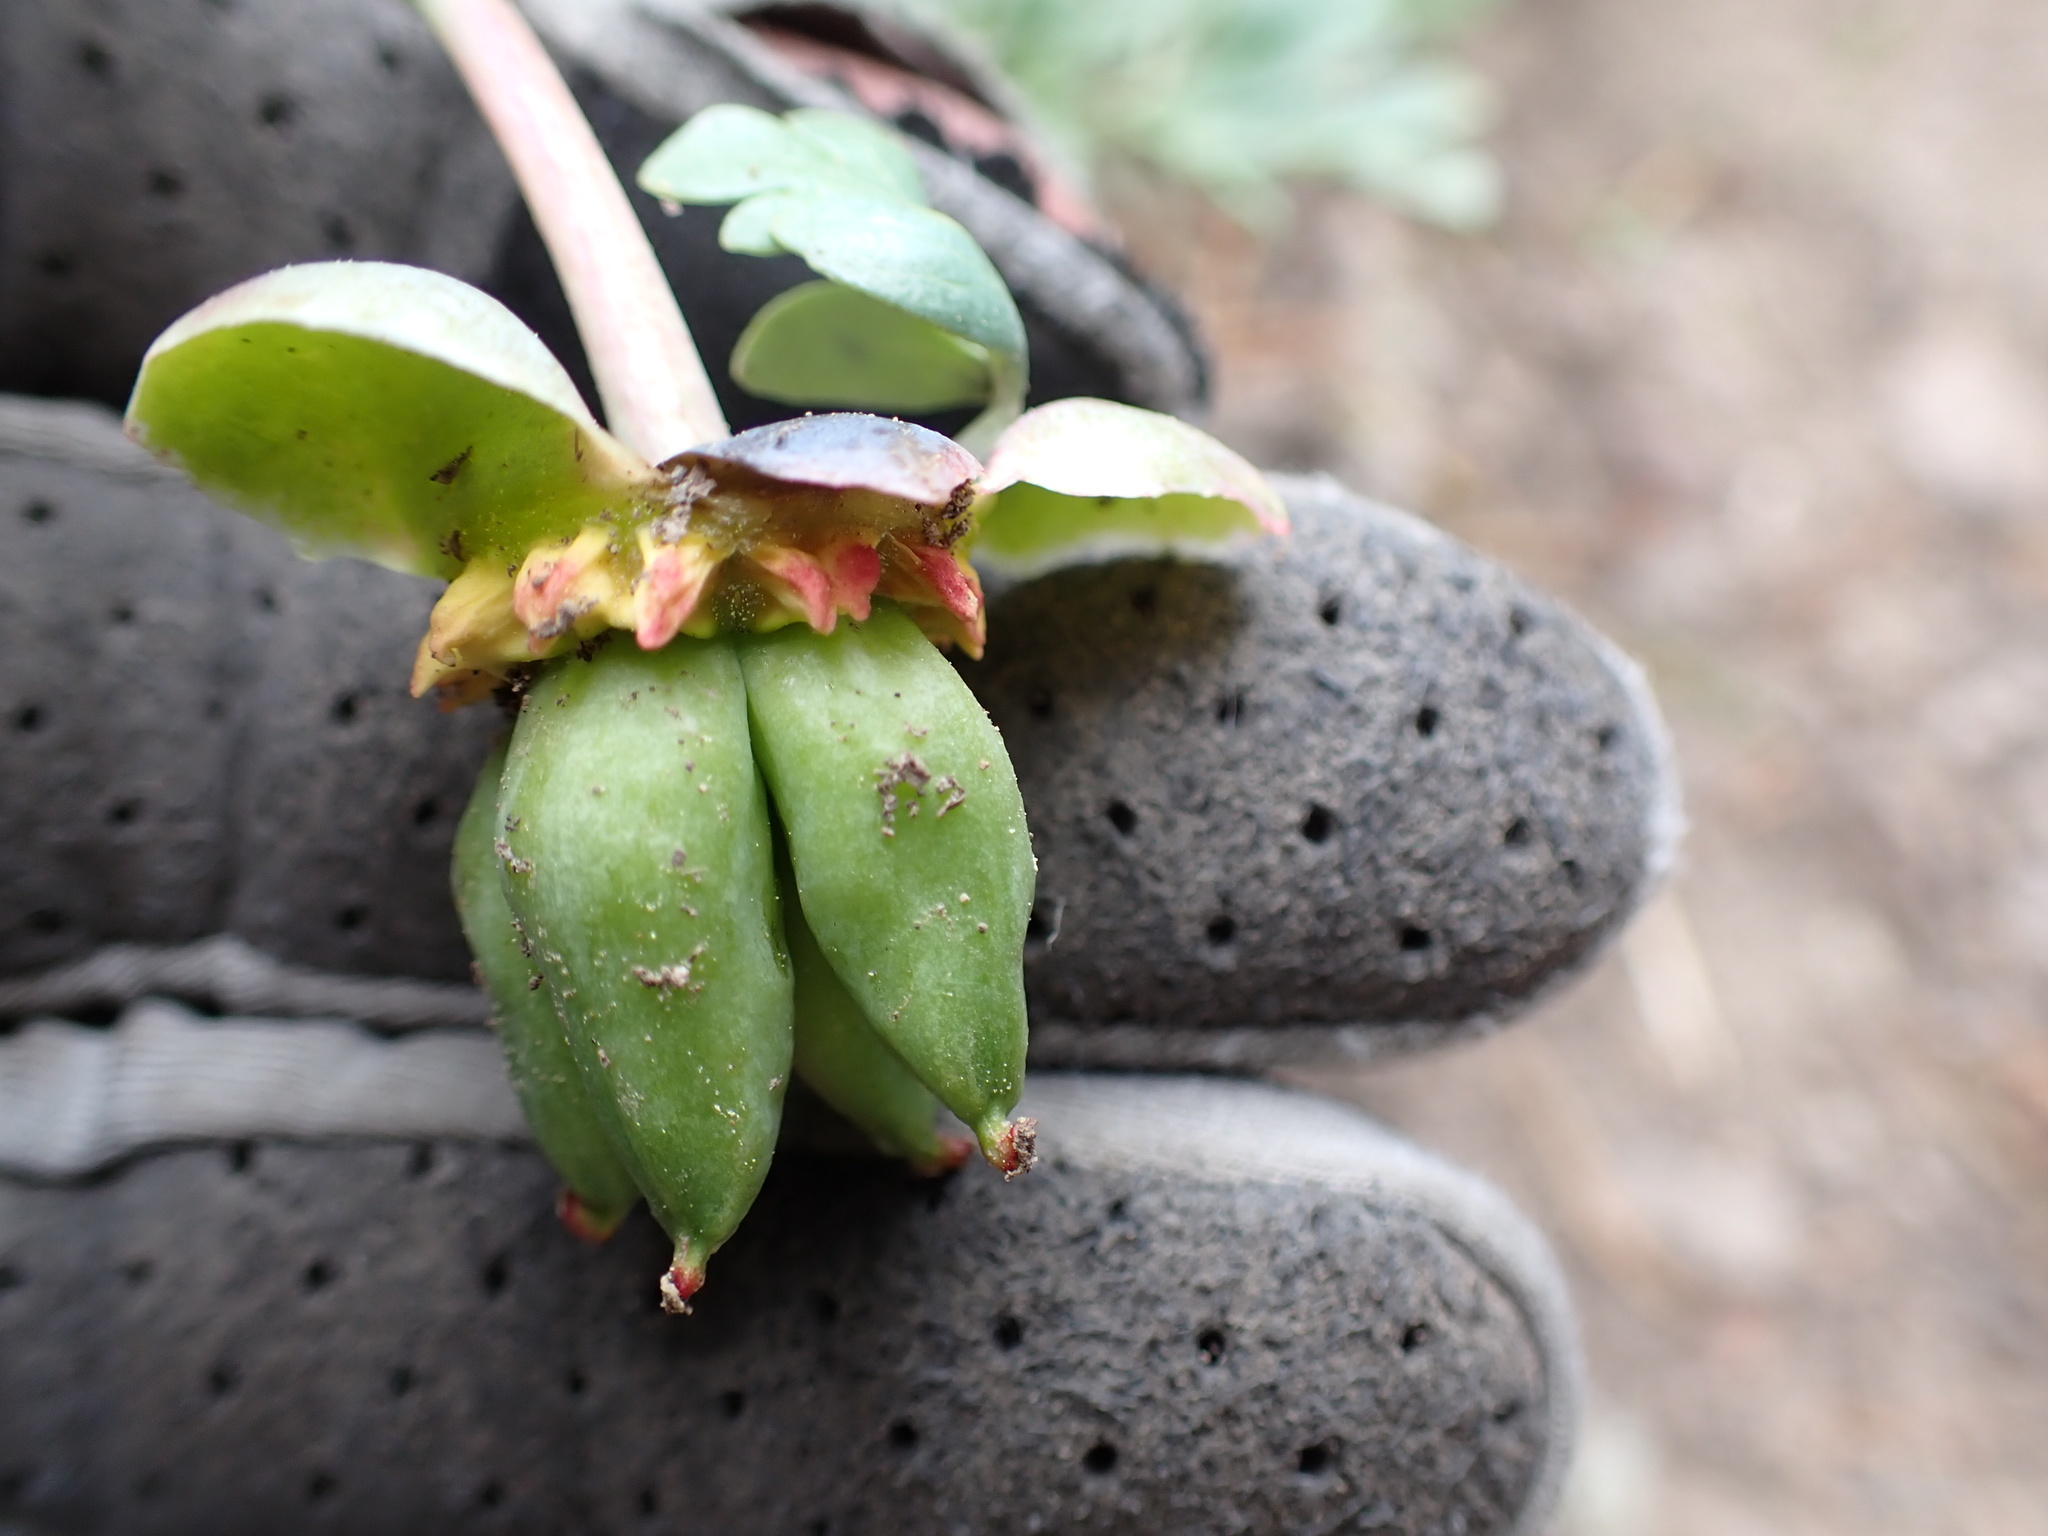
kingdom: Plantae
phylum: Tracheophyta
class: Magnoliopsida
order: Saxifragales
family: Paeoniaceae
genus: Paeonia
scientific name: Paeonia brownii
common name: Brown's peony
